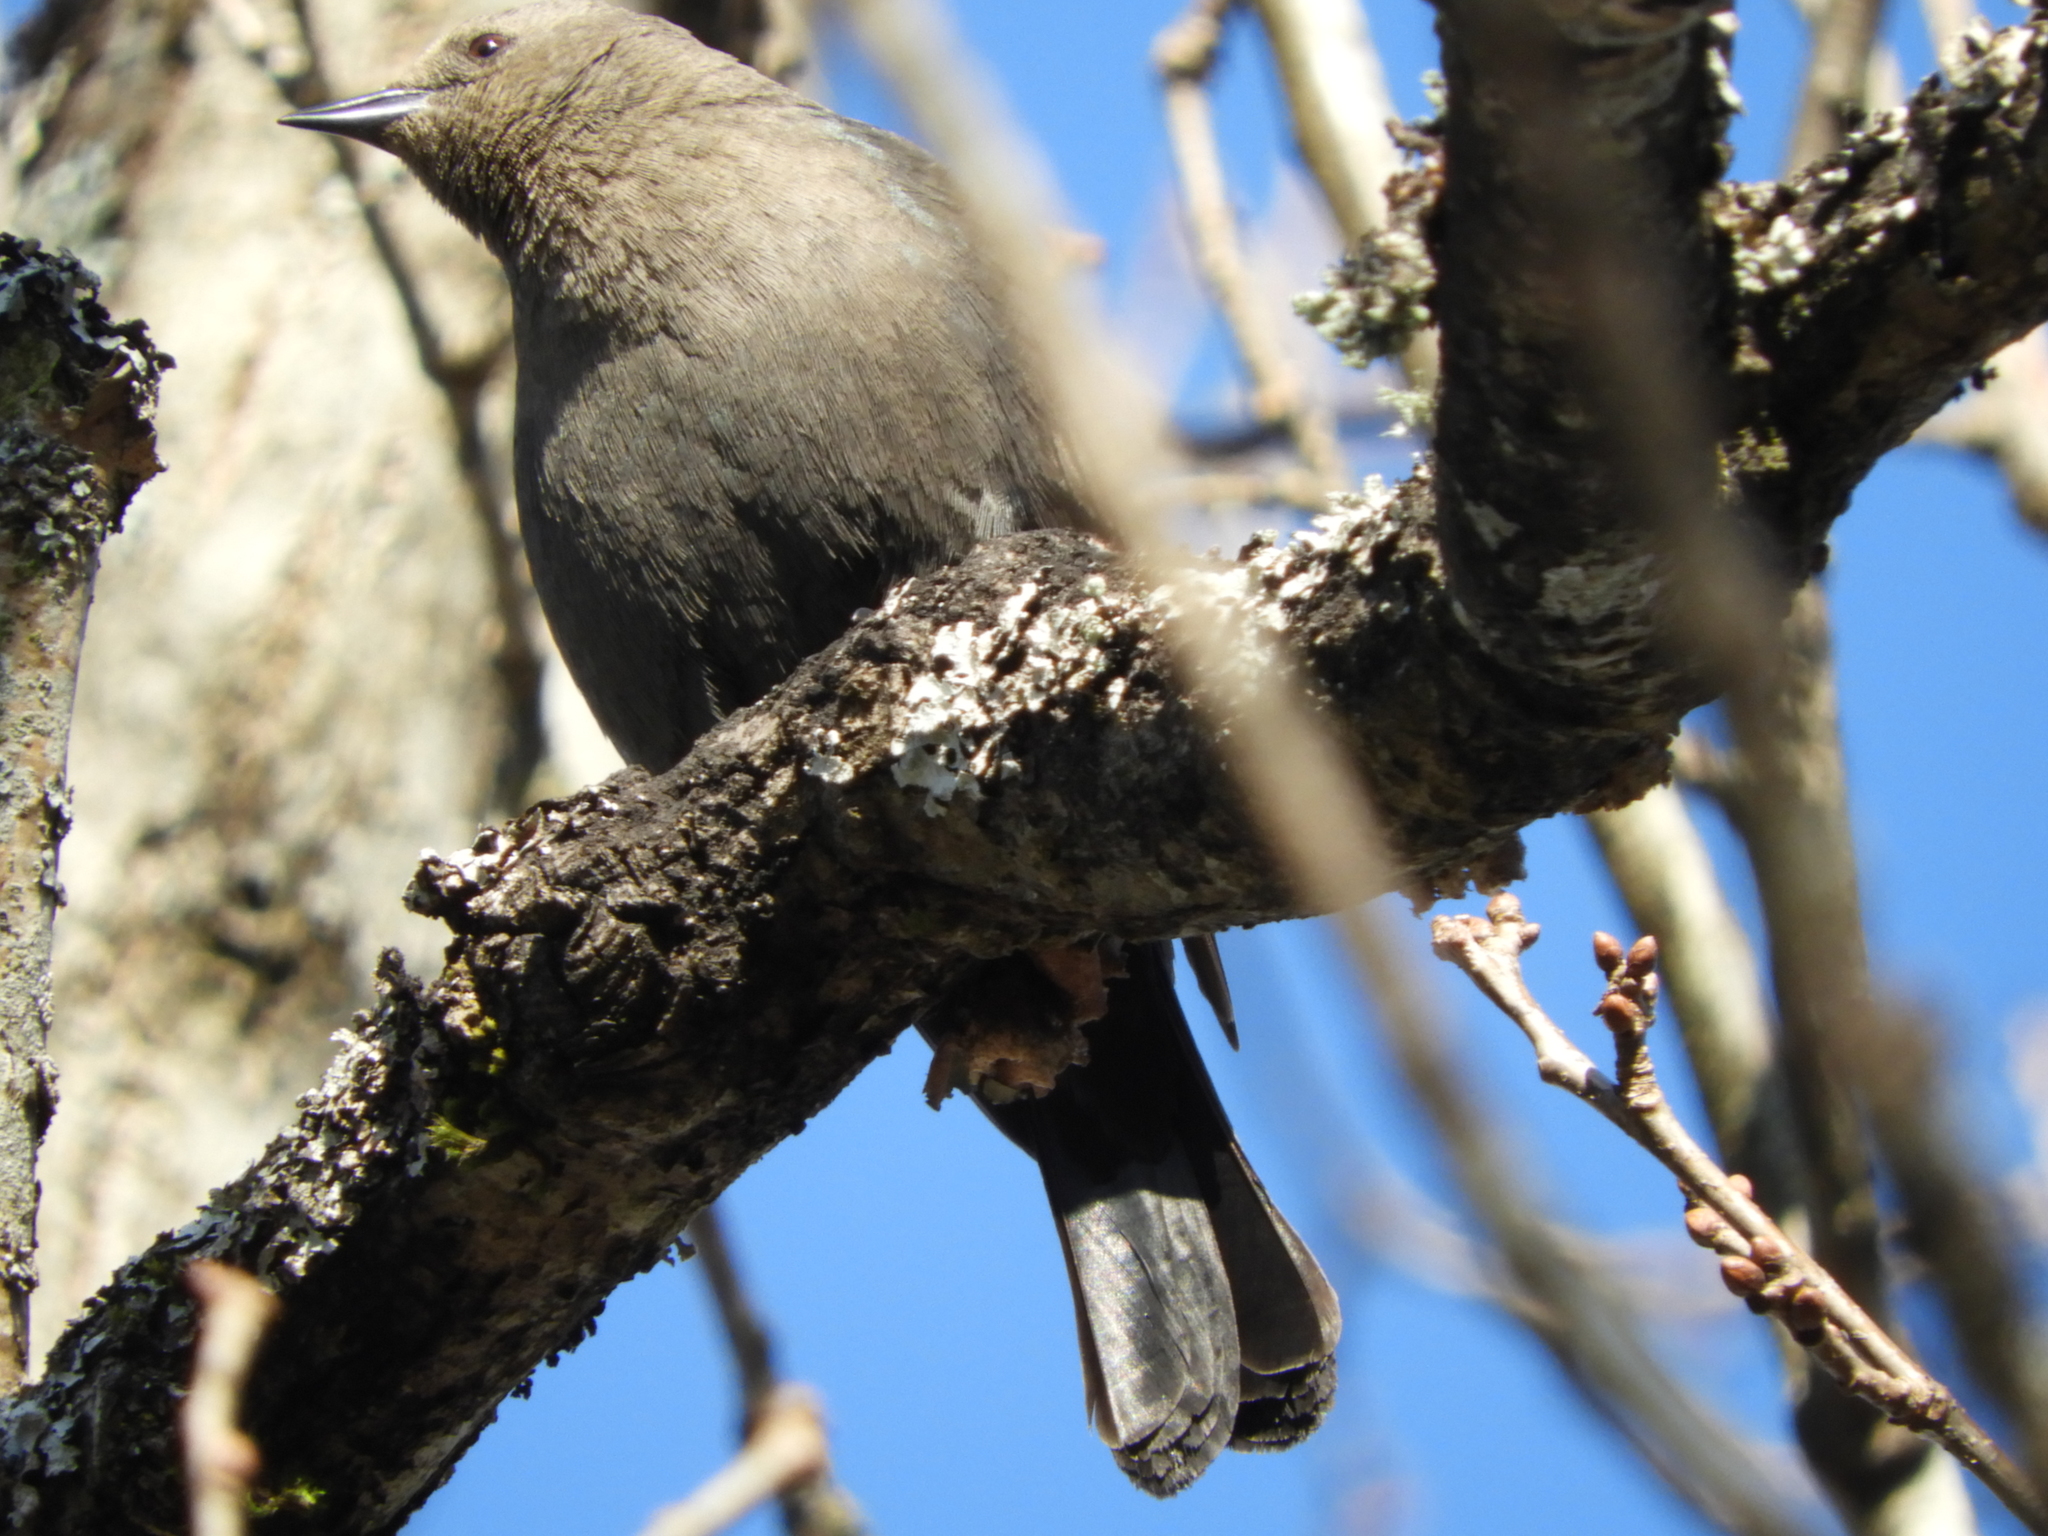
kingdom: Animalia
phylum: Chordata
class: Aves
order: Passeriformes
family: Icteridae
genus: Euphagus
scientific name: Euphagus cyanocephalus
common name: Brewer's blackbird
